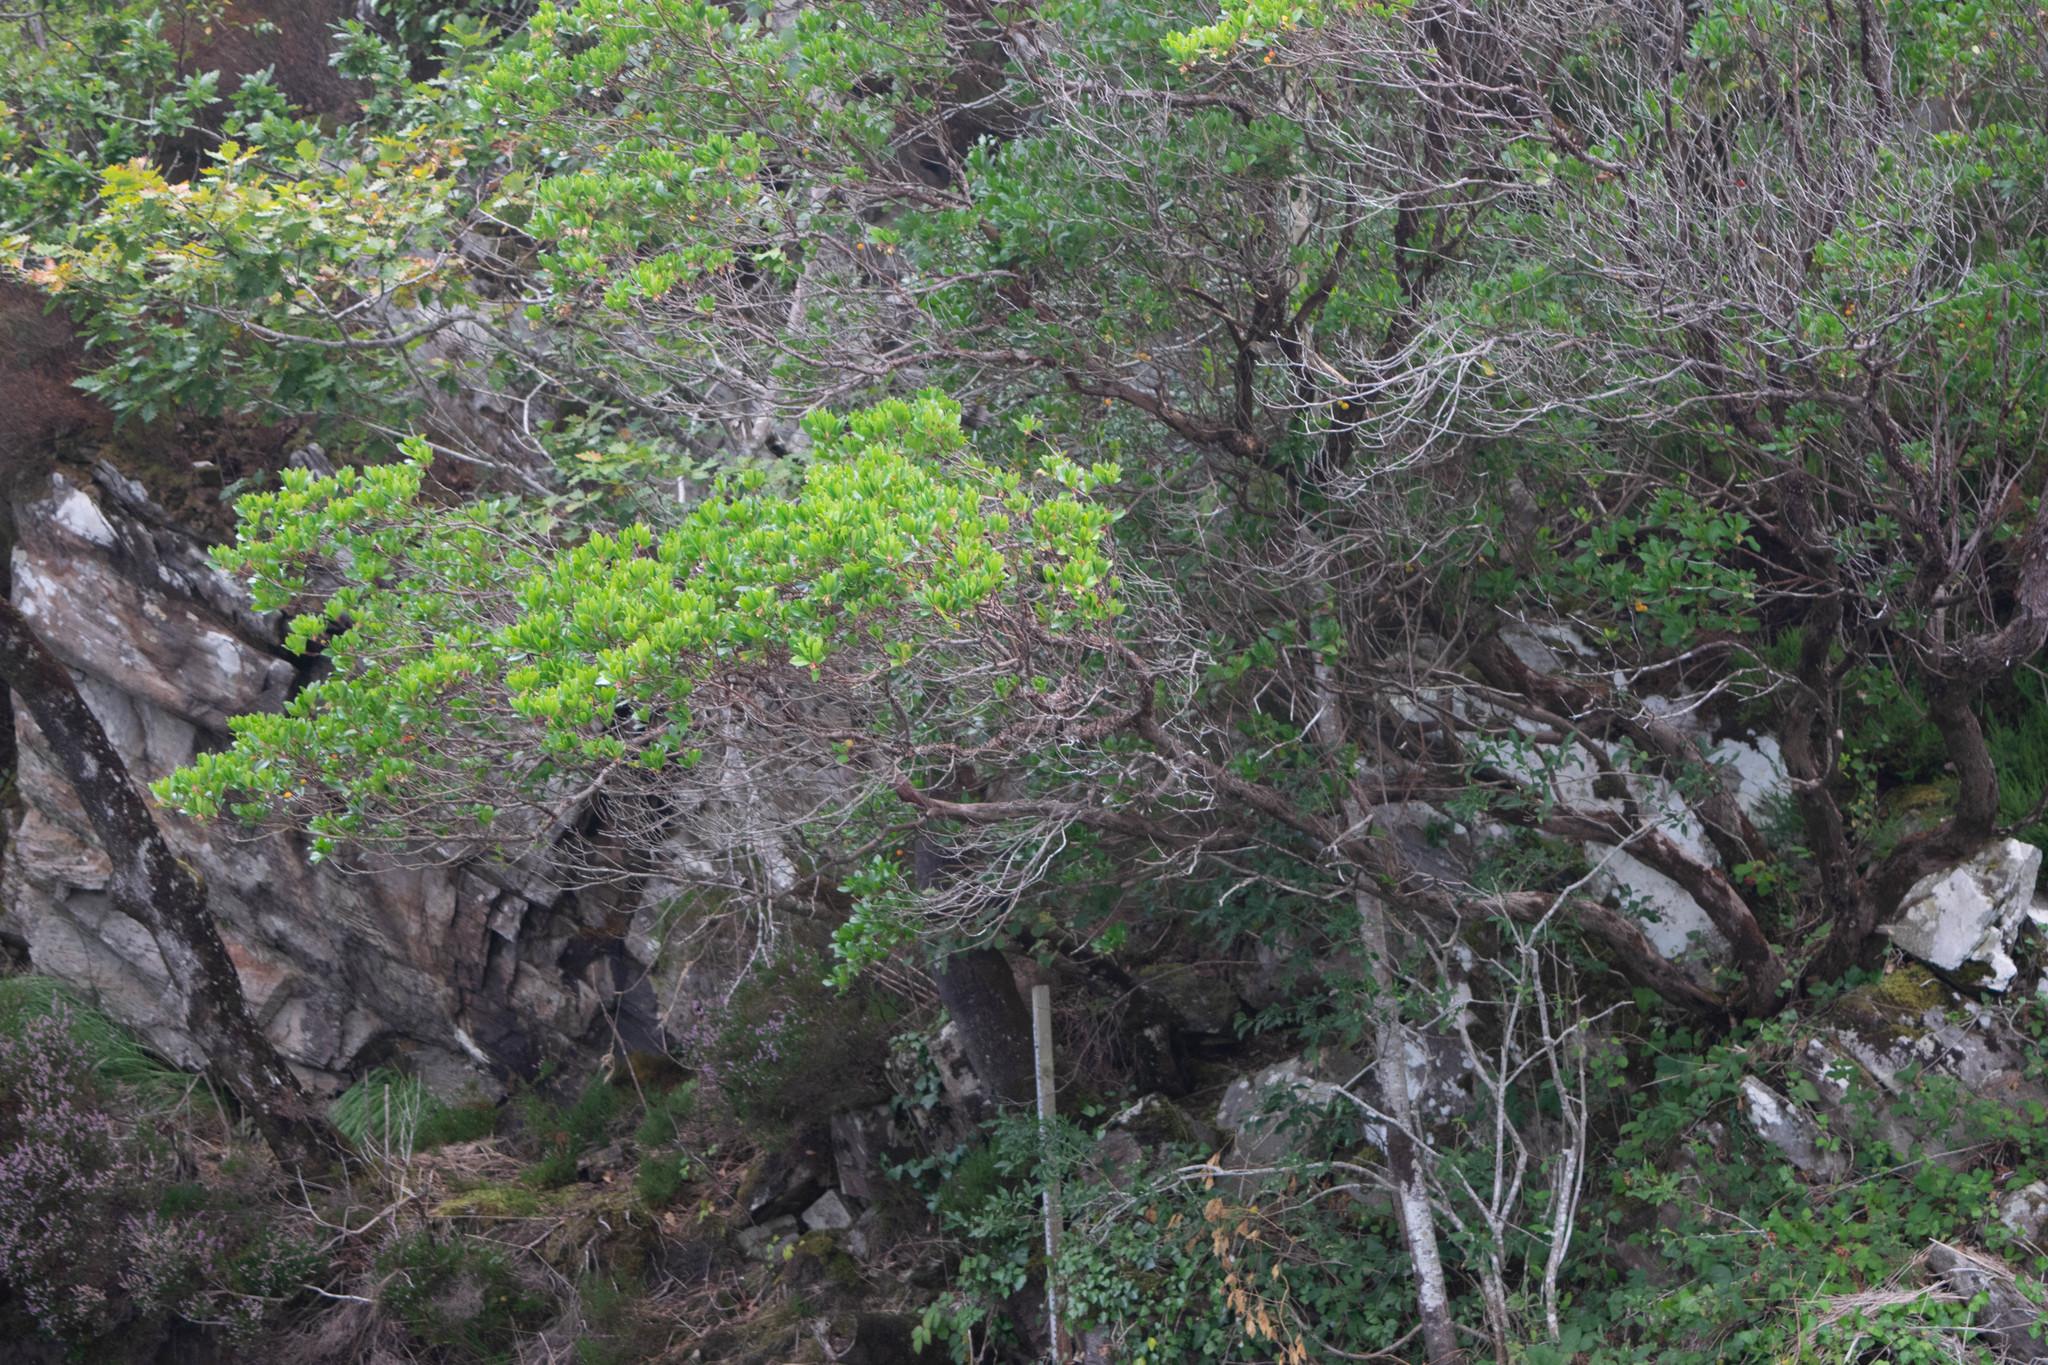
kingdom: Plantae
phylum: Tracheophyta
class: Magnoliopsida
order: Ericales
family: Ericaceae
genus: Arbutus
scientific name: Arbutus unedo
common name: Strawberry-tree
